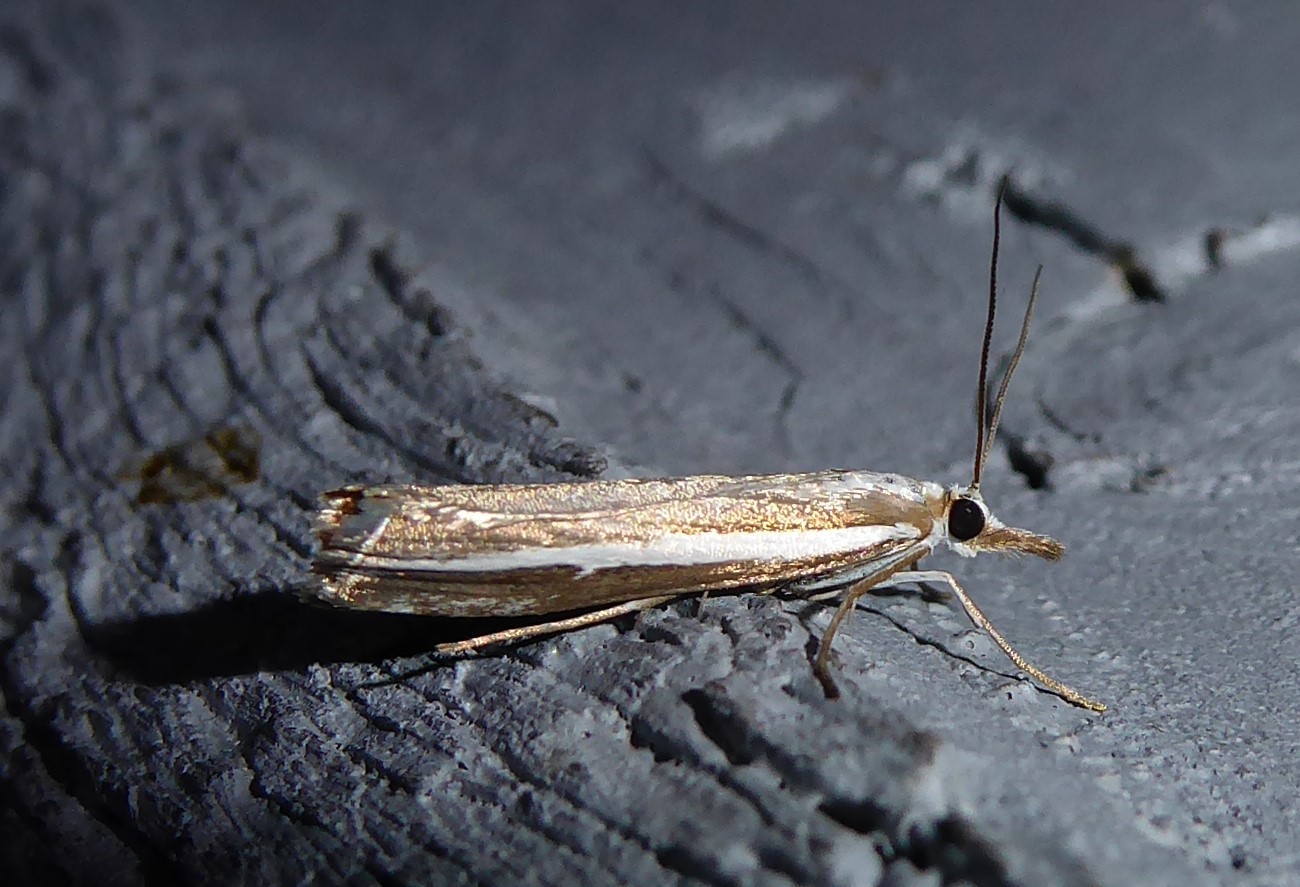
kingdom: Animalia
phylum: Arthropoda
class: Insecta
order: Lepidoptera
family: Crambidae
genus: Orocrambus
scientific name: Orocrambus vittellus
